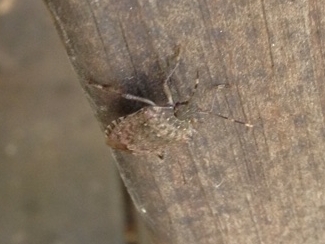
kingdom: Animalia
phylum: Arthropoda
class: Insecta
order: Hemiptera
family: Pentatomidae
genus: Halyomorpha
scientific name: Halyomorpha halys
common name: Brown marmorated stink bug
